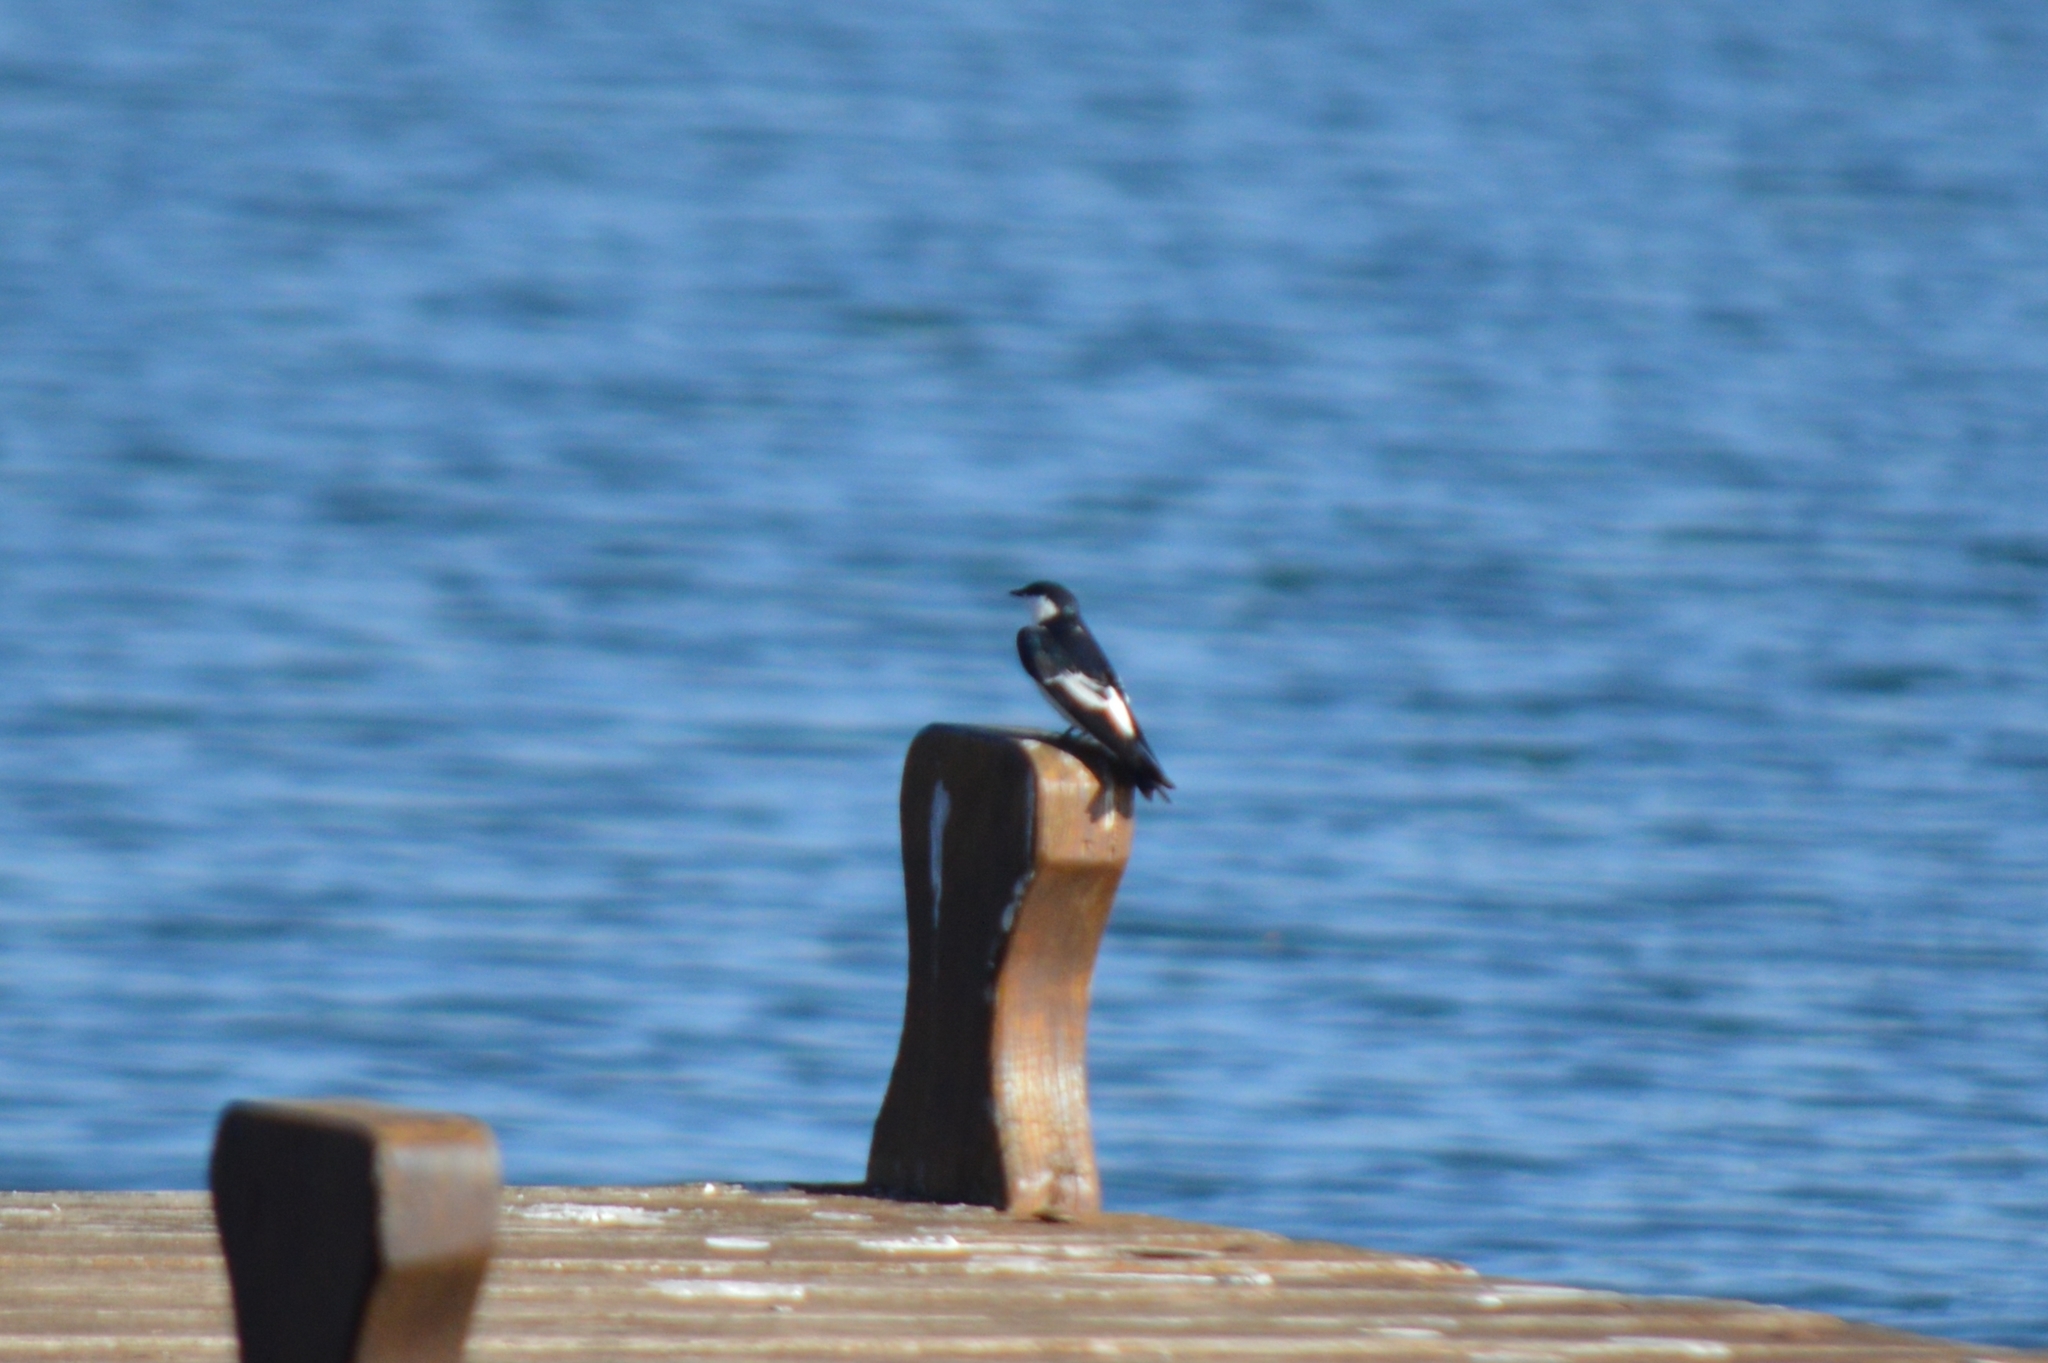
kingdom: Animalia
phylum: Chordata
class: Aves
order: Passeriformes
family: Hirundinidae
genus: Tachycineta
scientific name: Tachycineta albiventer
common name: White-winged swallow
